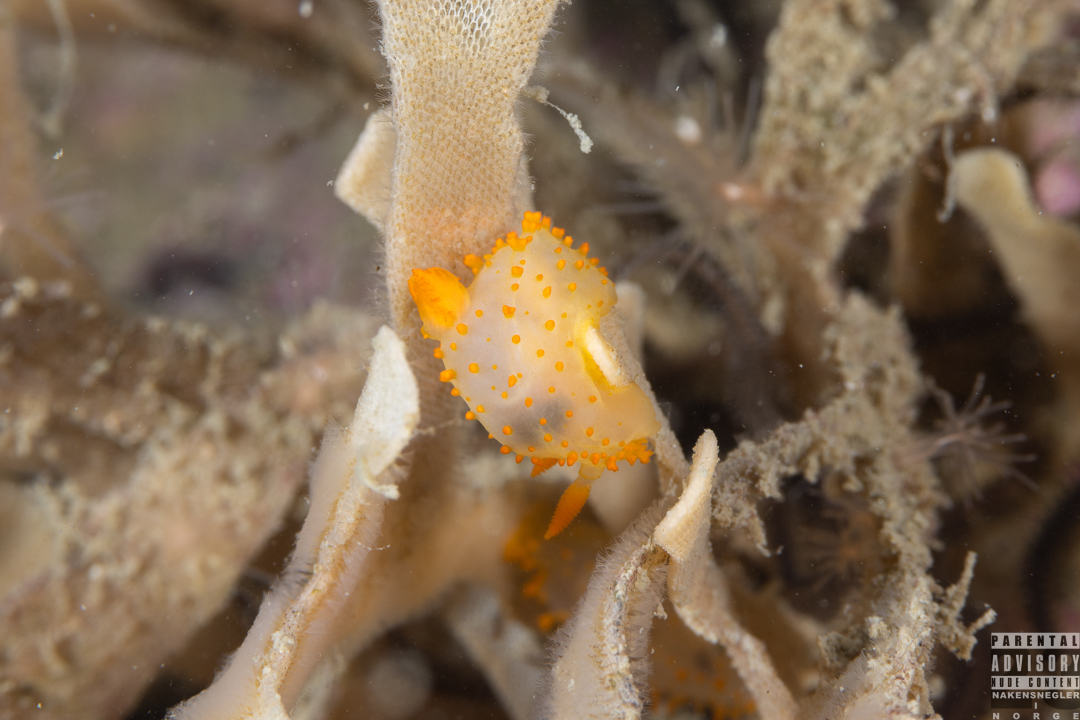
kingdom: Animalia
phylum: Mollusca
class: Gastropoda
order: Nudibranchia
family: Polyceridae
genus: Crimora
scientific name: Crimora papillata
